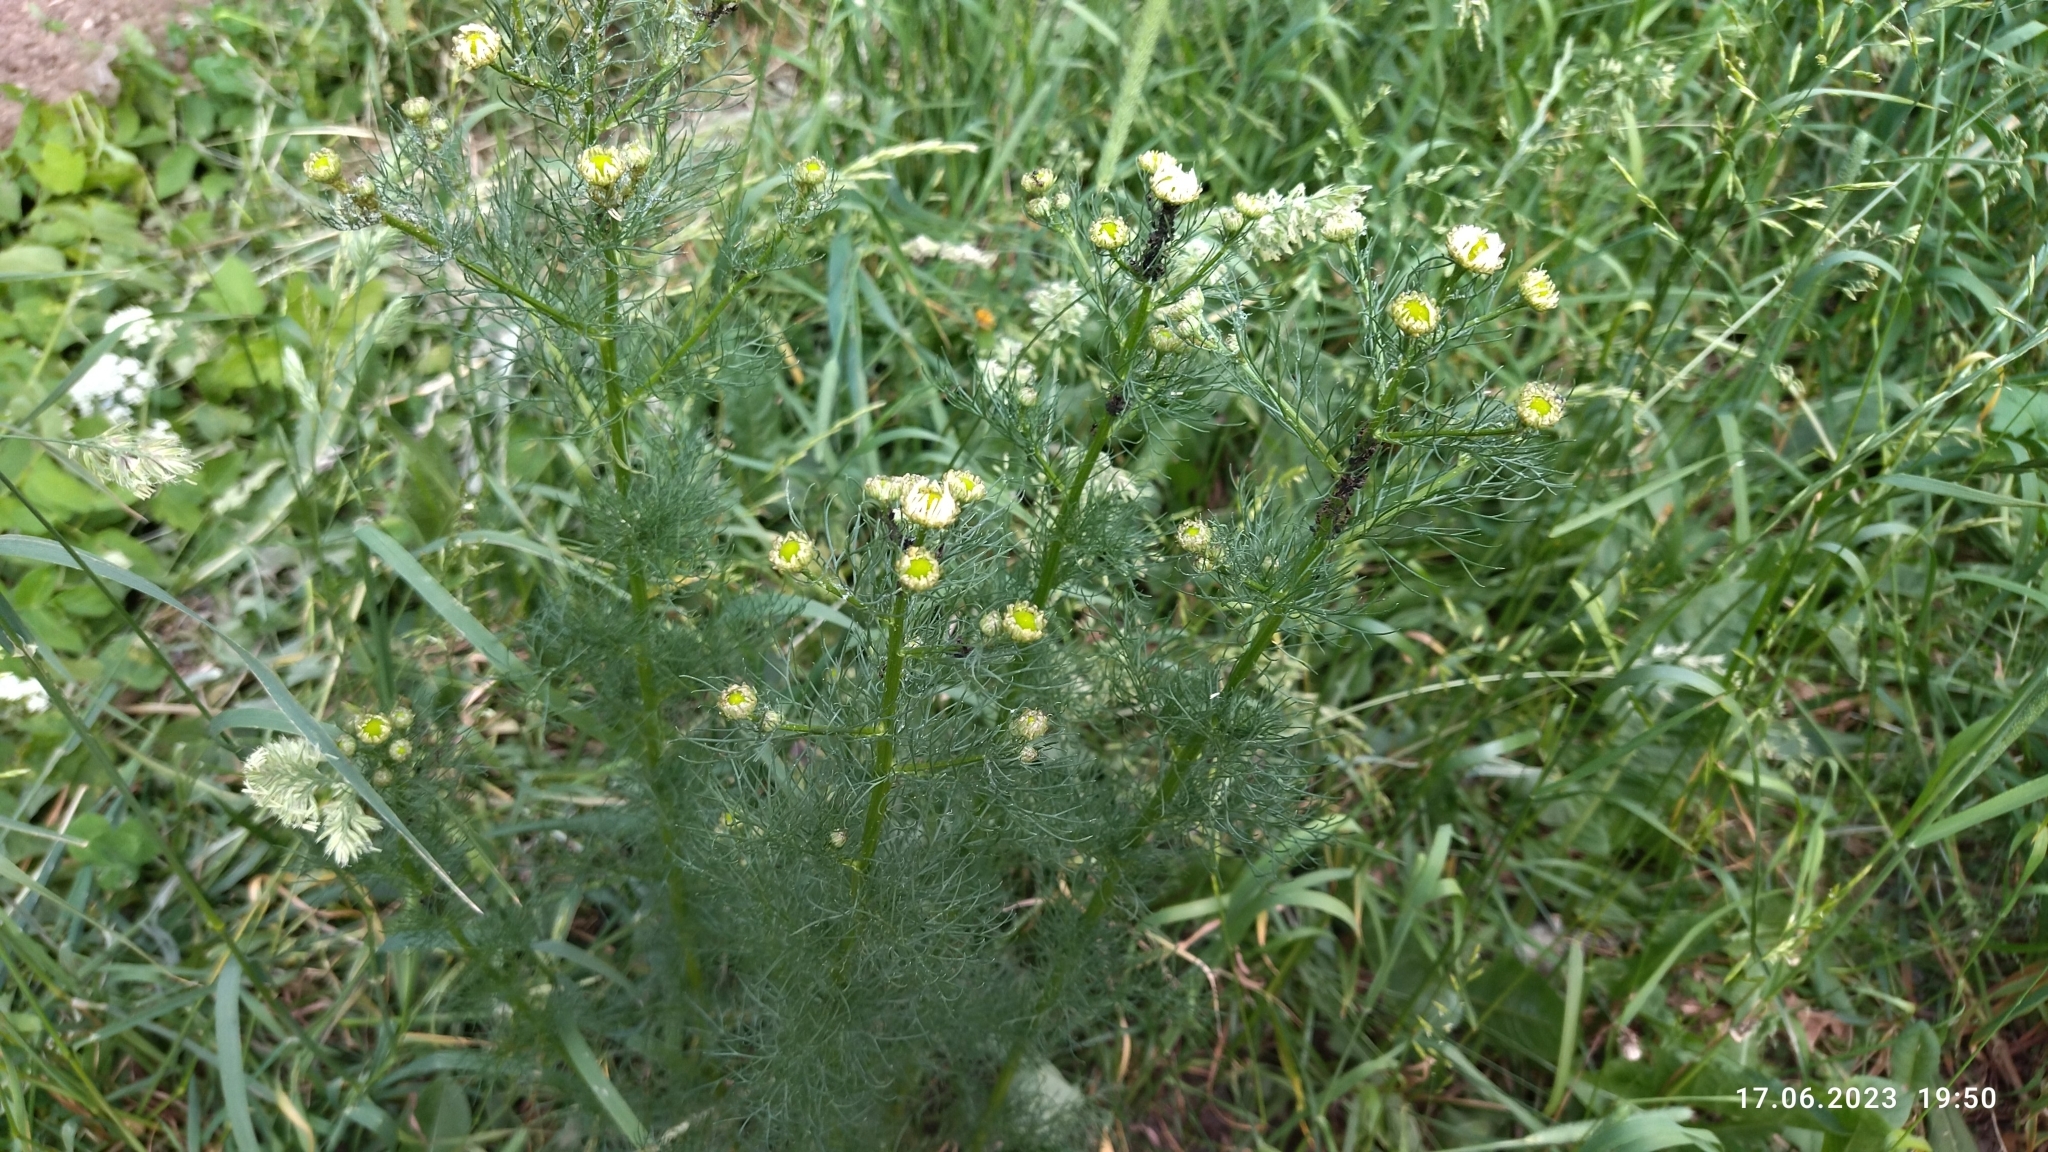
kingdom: Plantae
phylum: Tracheophyta
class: Magnoliopsida
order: Asterales
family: Asteraceae
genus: Tripleurospermum
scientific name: Tripleurospermum inodorum
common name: Scentless mayweed
